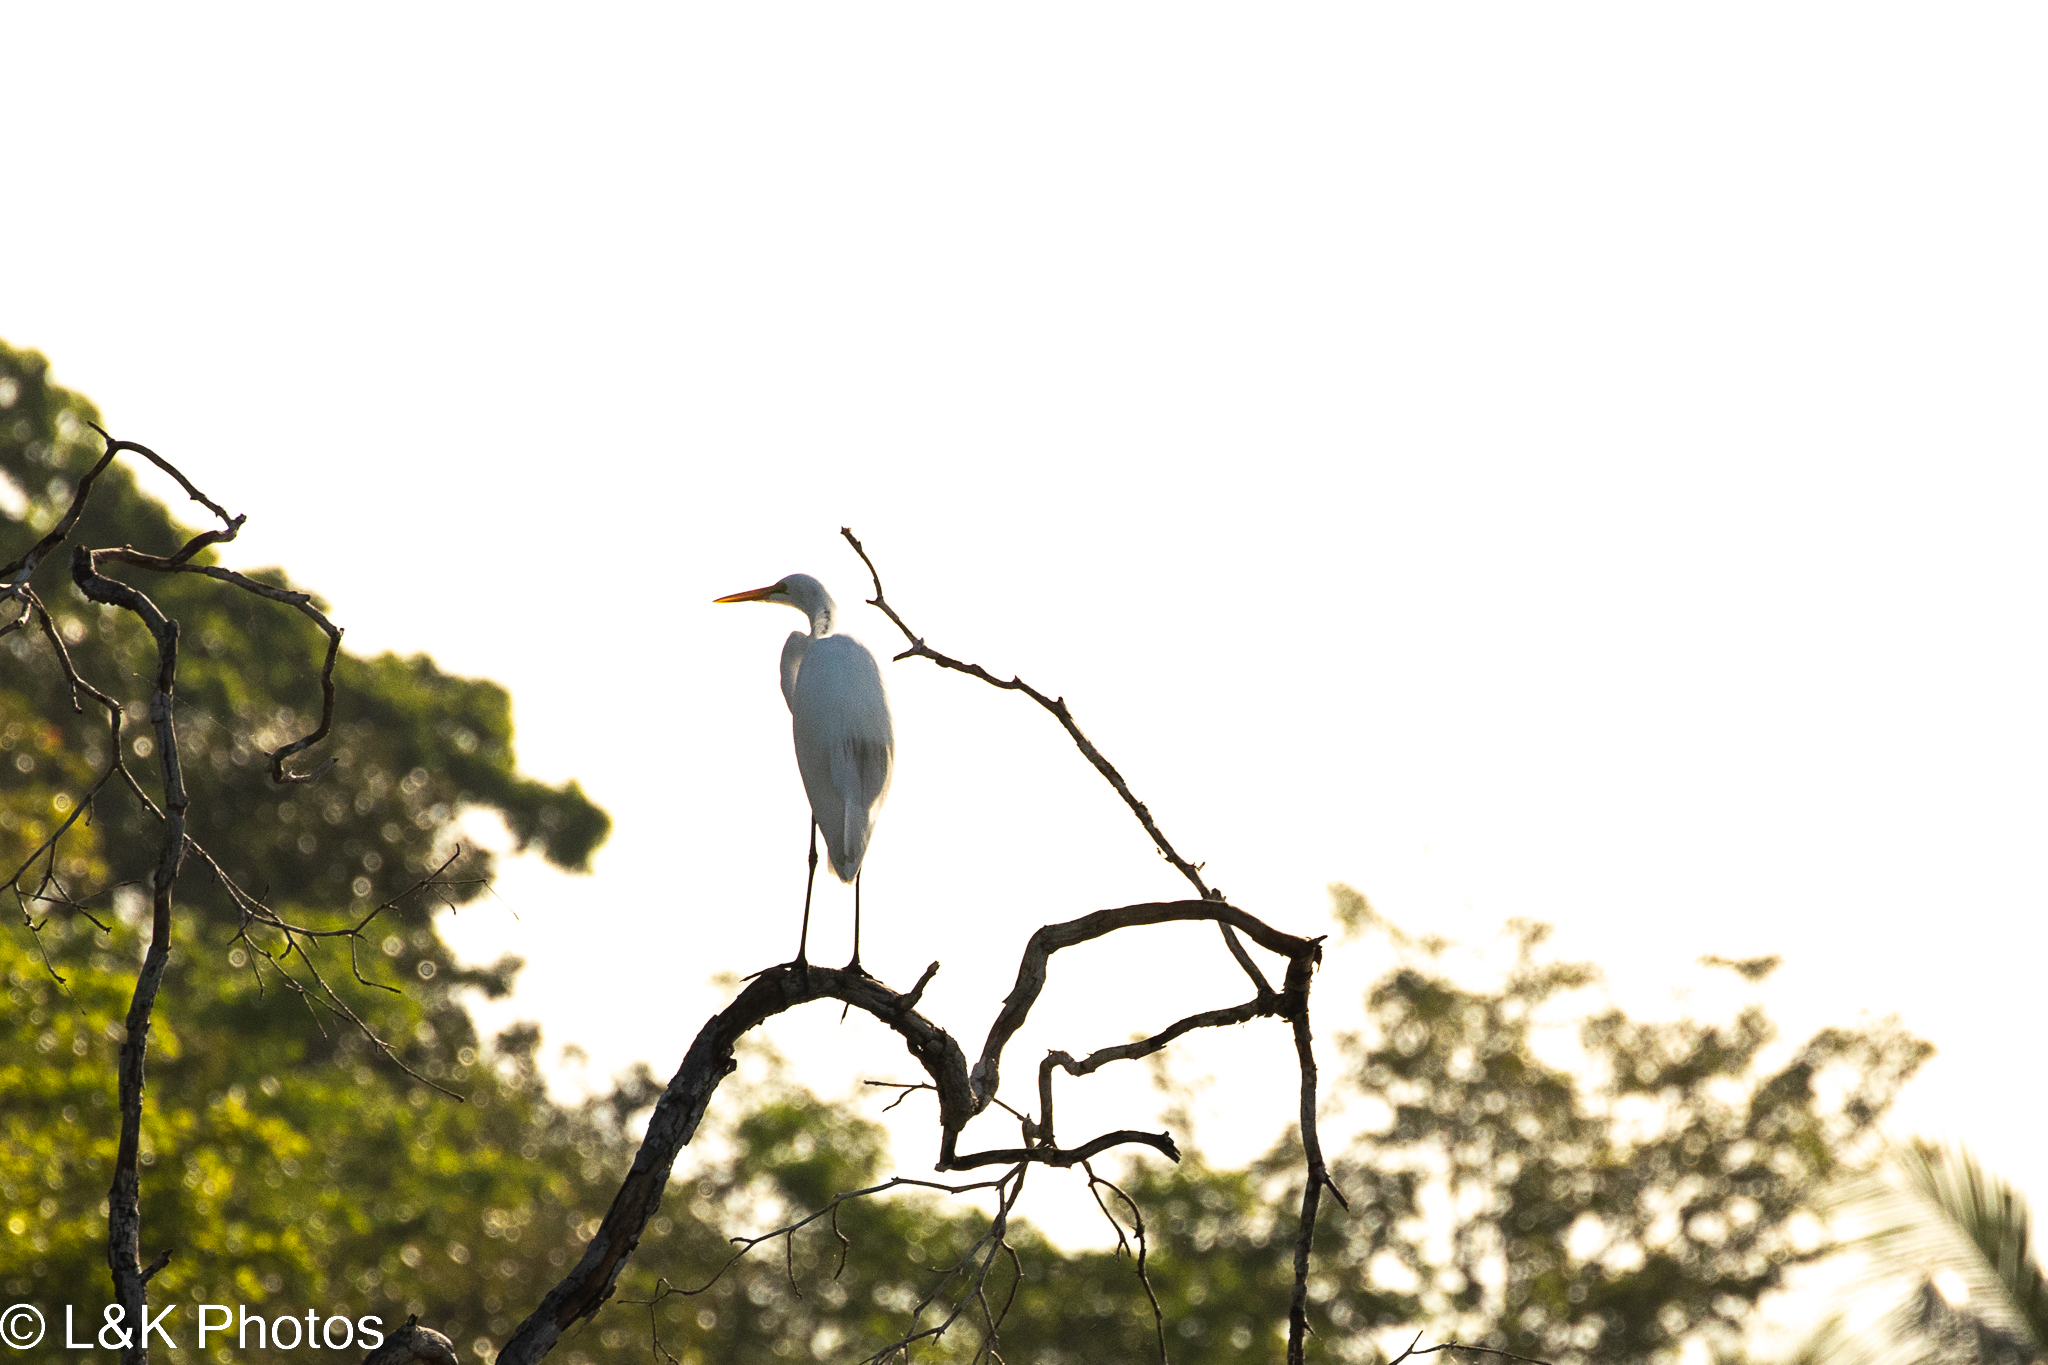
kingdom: Animalia
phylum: Chordata
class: Aves
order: Pelecaniformes
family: Ardeidae
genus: Ardea
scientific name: Ardea alba
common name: Great egret
